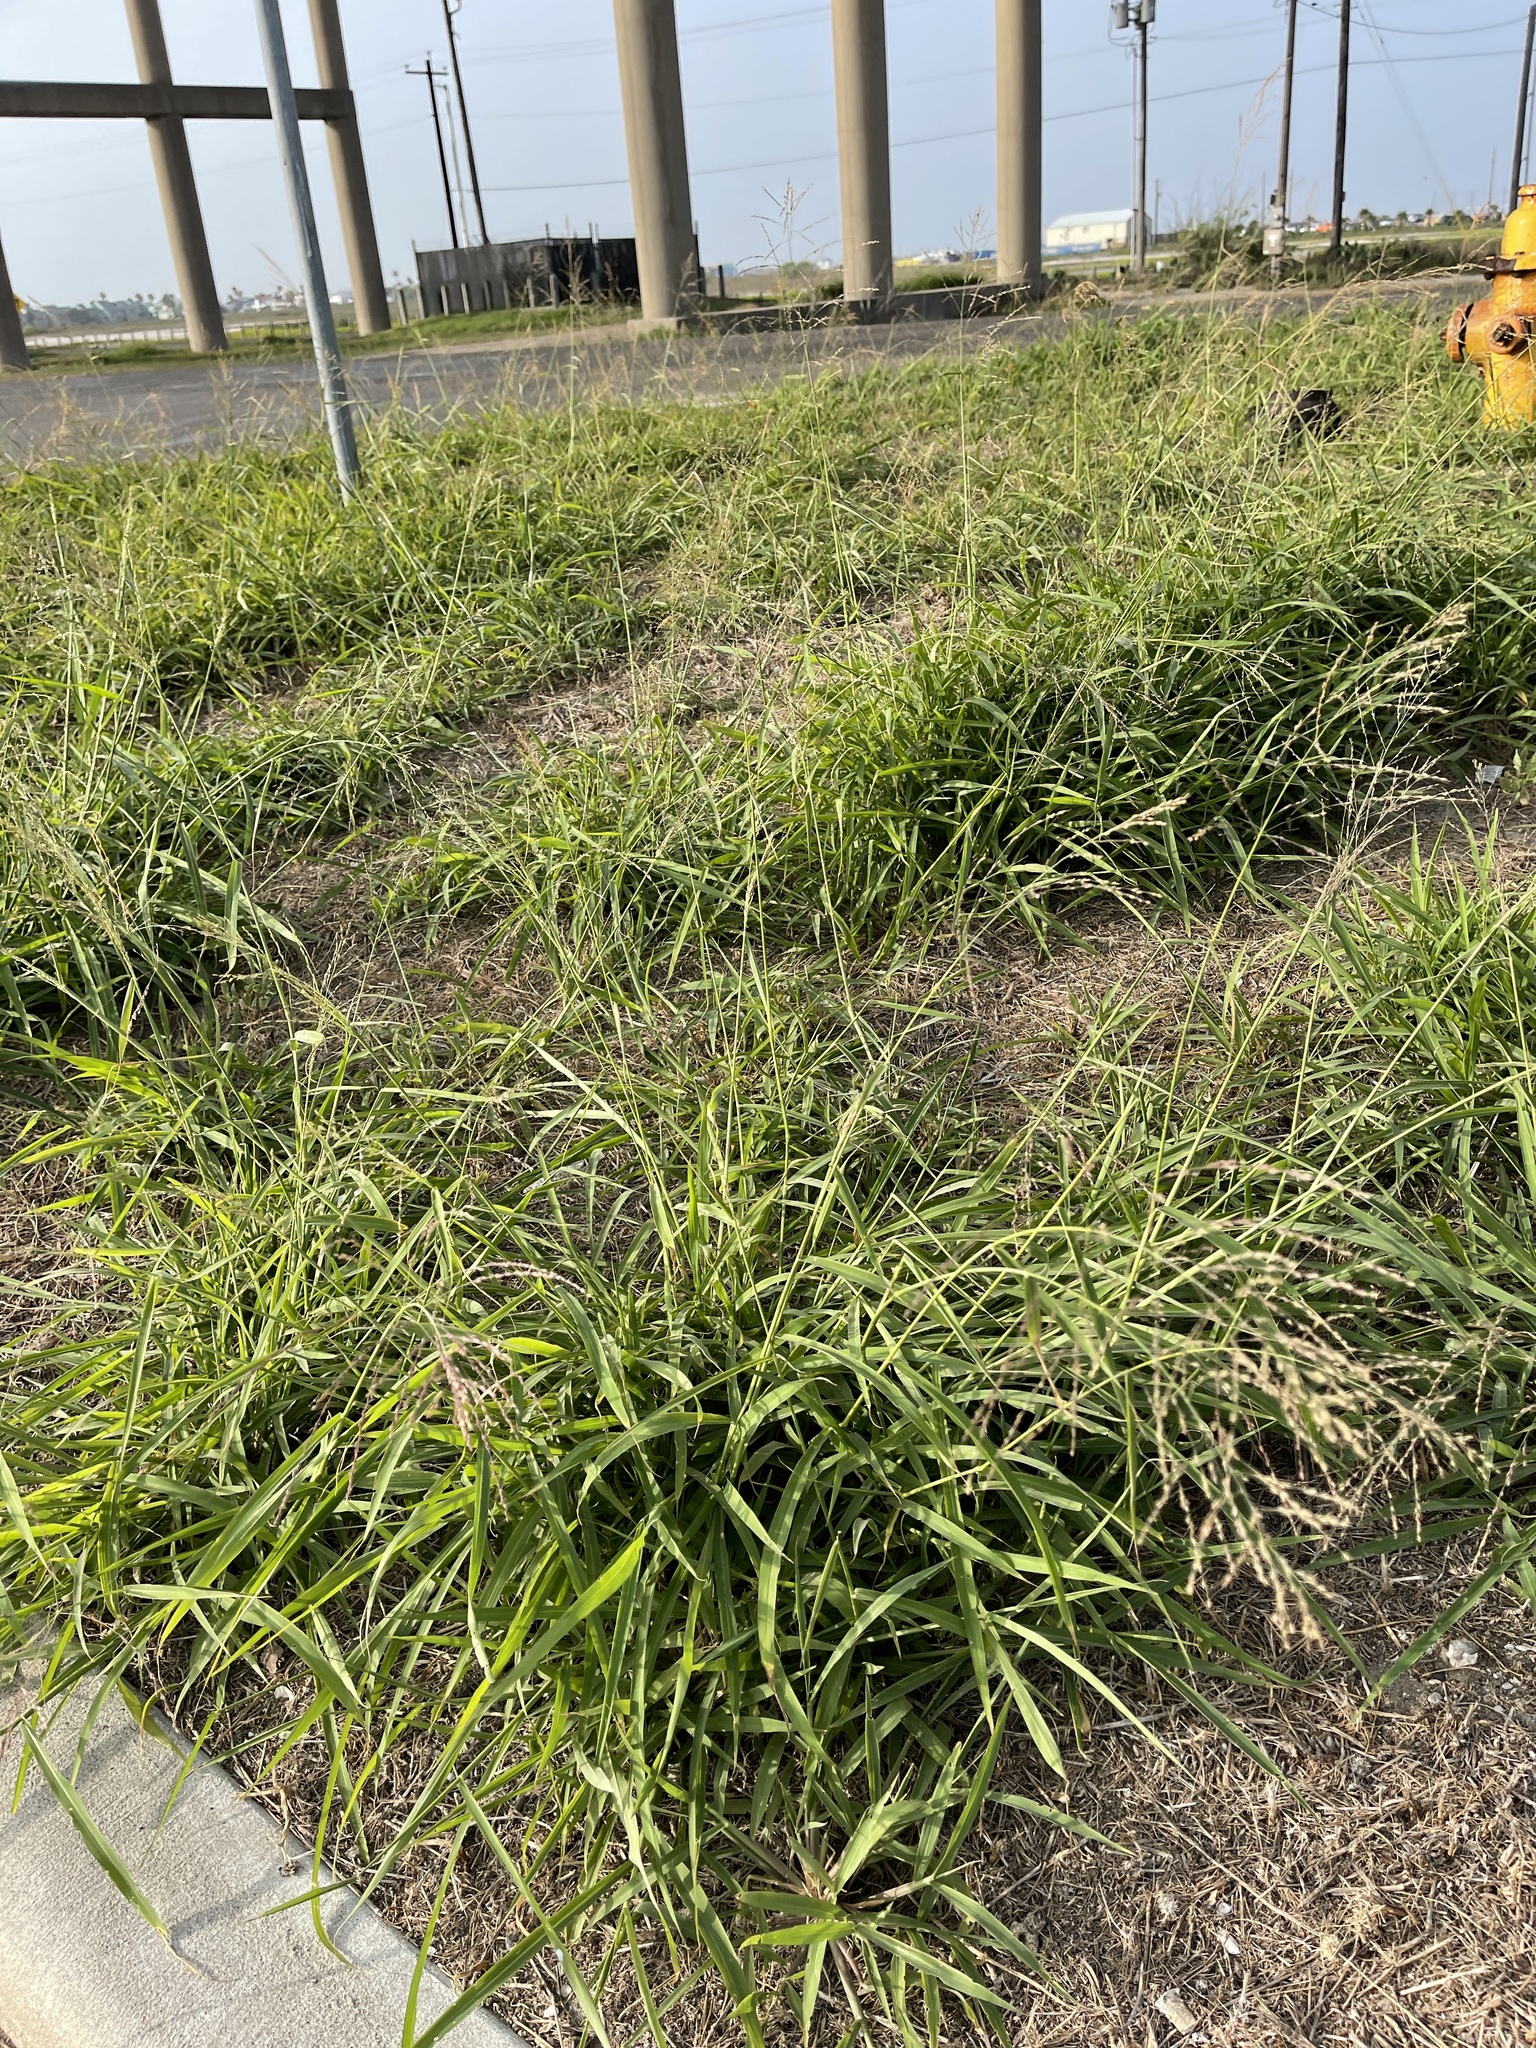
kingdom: Plantae
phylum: Tracheophyta
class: Liliopsida
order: Poales
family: Poaceae
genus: Megathyrsus
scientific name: Megathyrsus maximus
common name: Guineagrass
